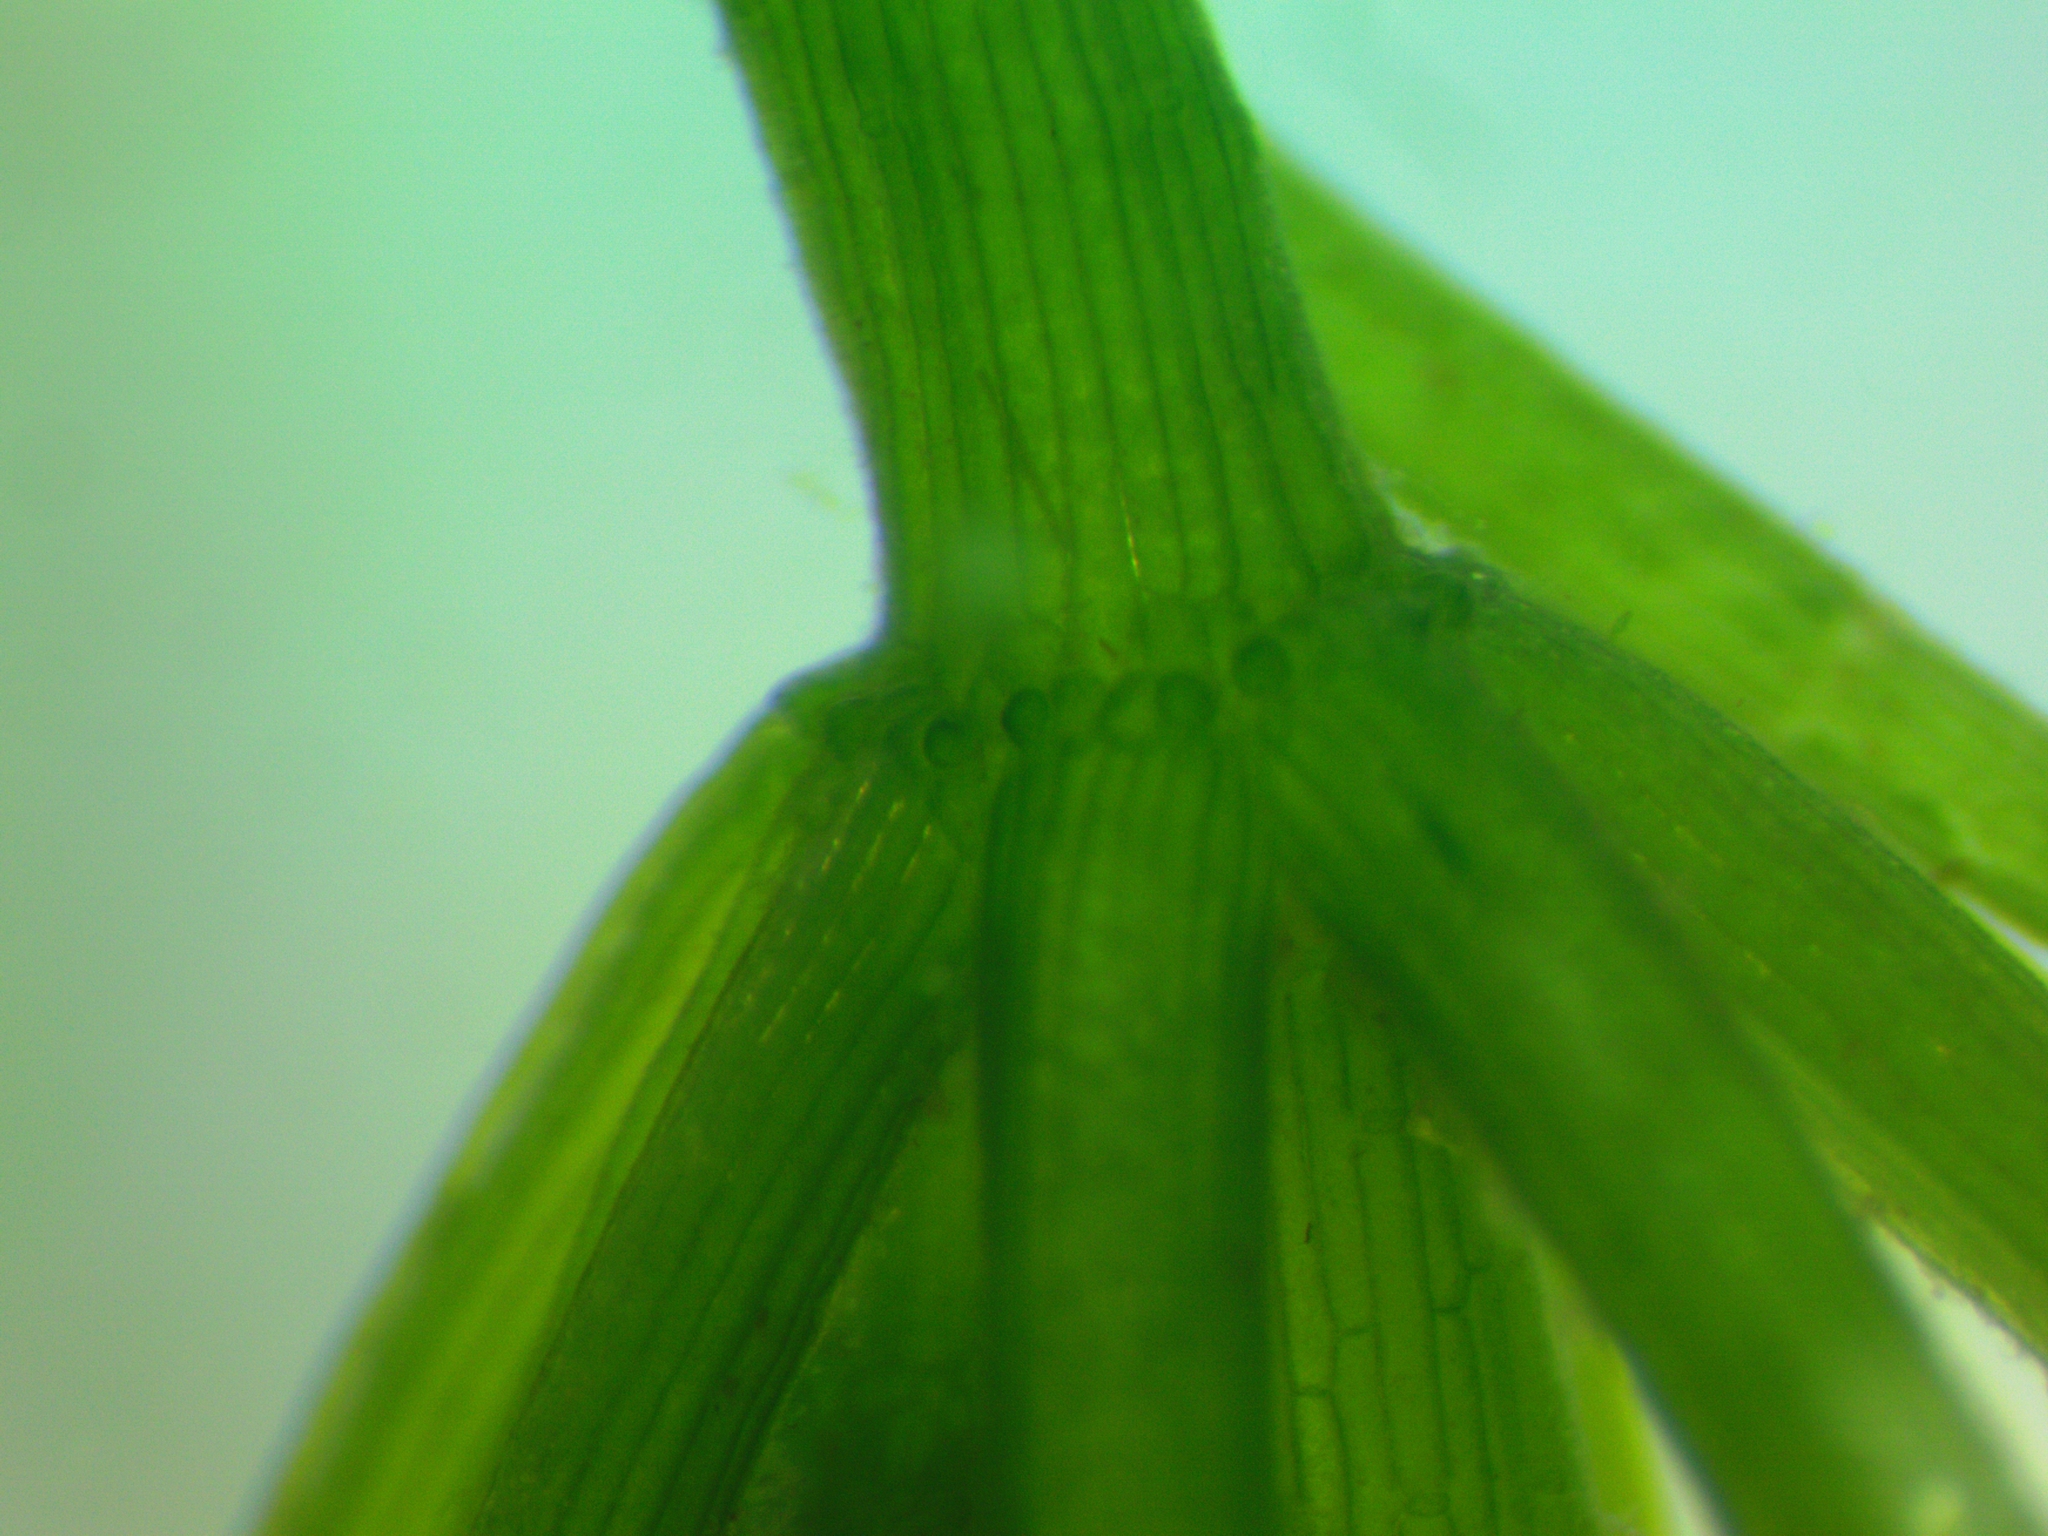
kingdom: Plantae
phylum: Charophyta
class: Charophyceae
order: Charales
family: Characeae
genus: Chara
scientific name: Chara globularis
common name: Fragile stonewort
